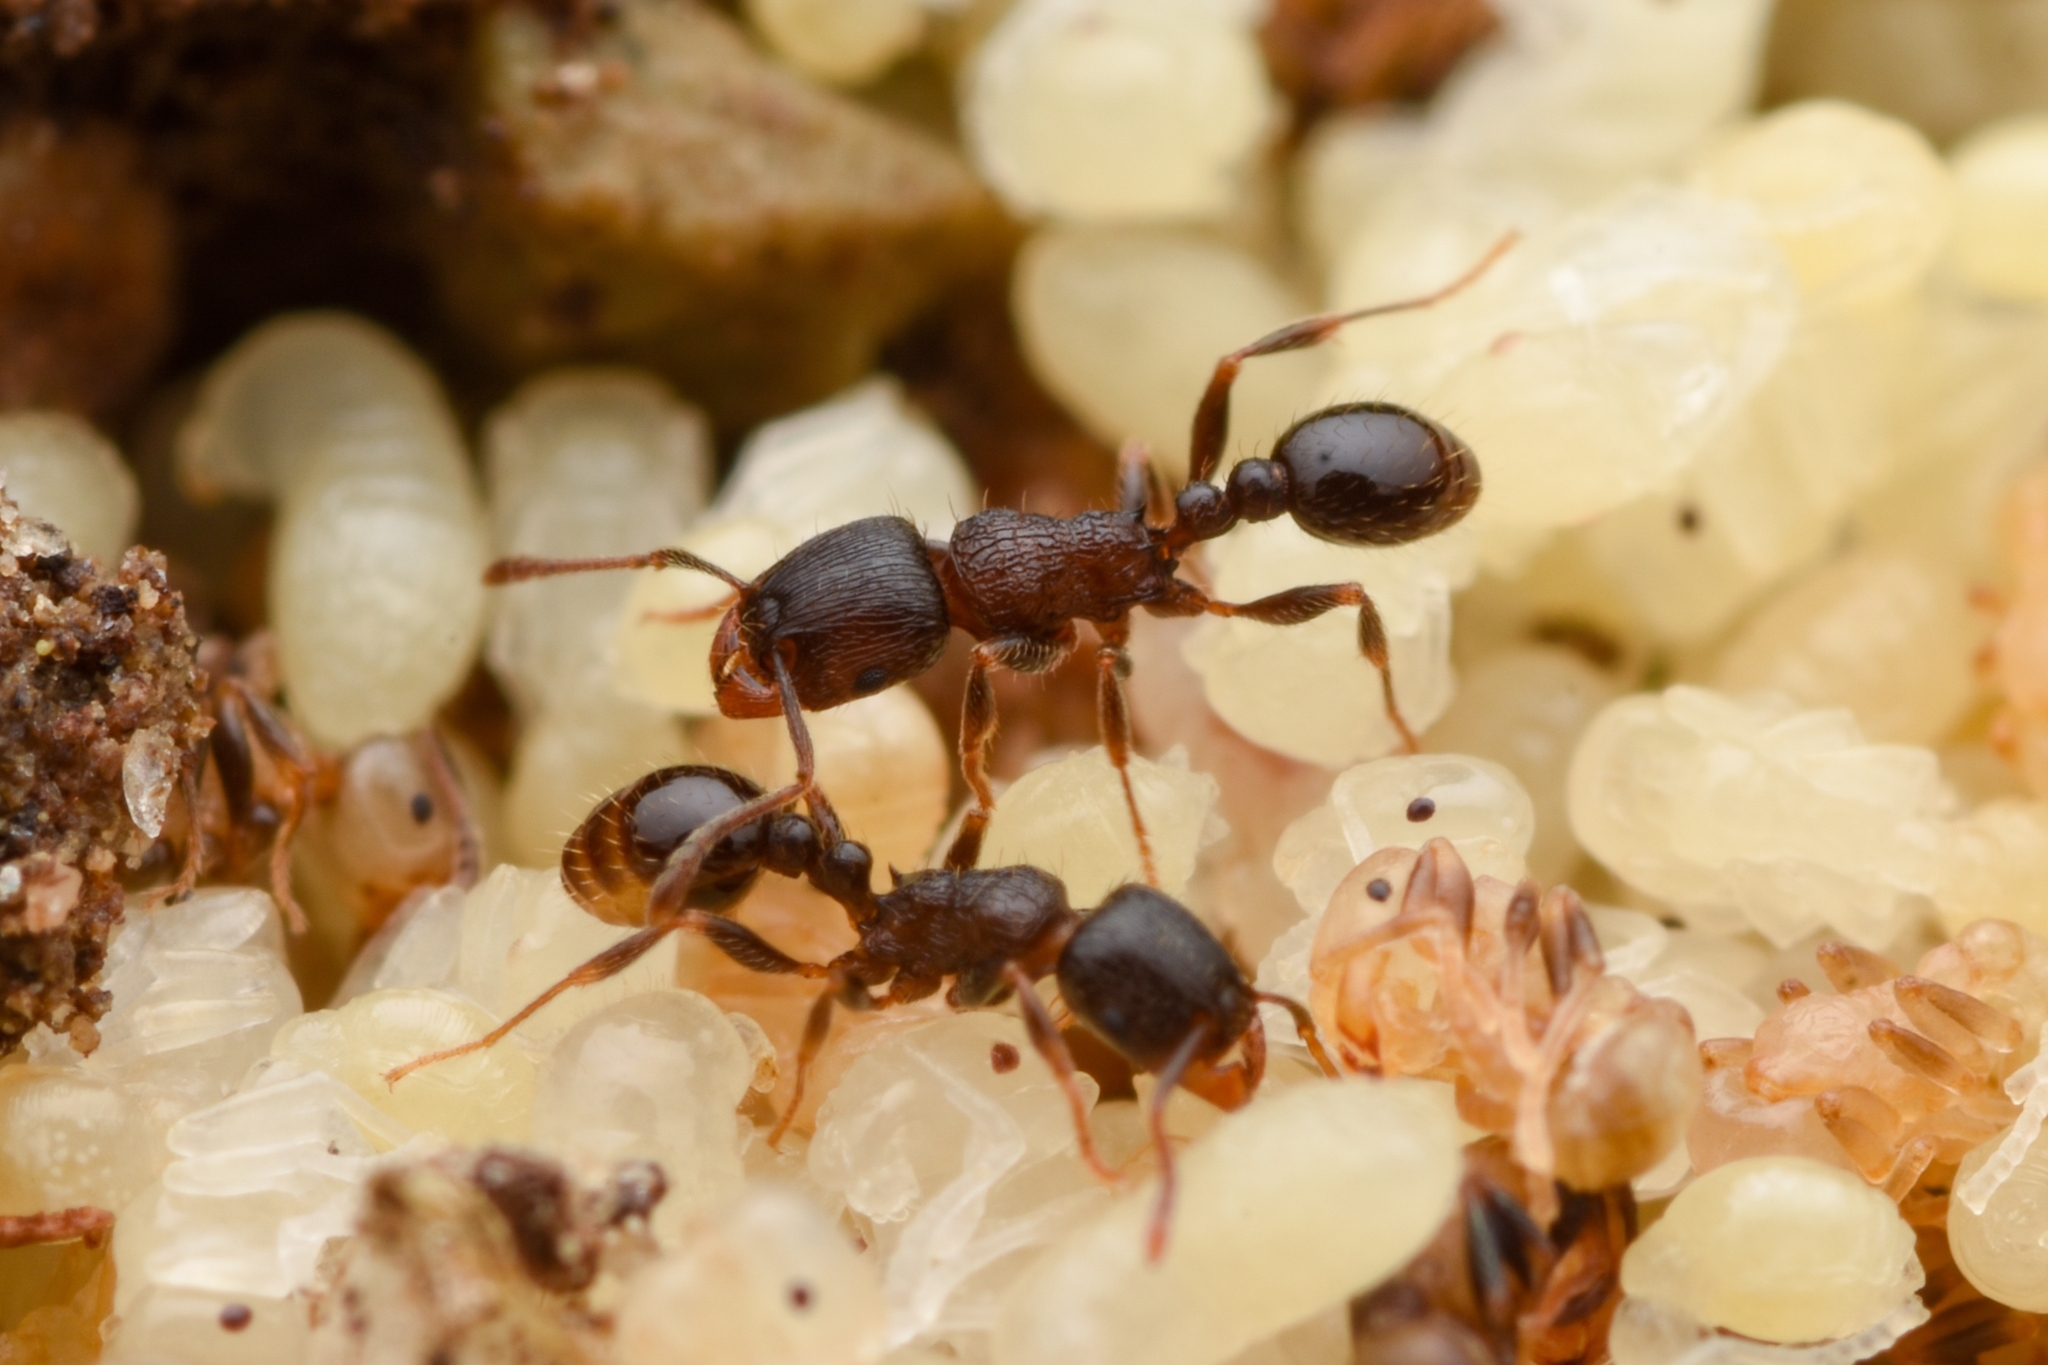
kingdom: Animalia
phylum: Arthropoda
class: Insecta
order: Hymenoptera
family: Formicidae
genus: Tetramorium
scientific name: Tetramorium tsushimae
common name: Ant
